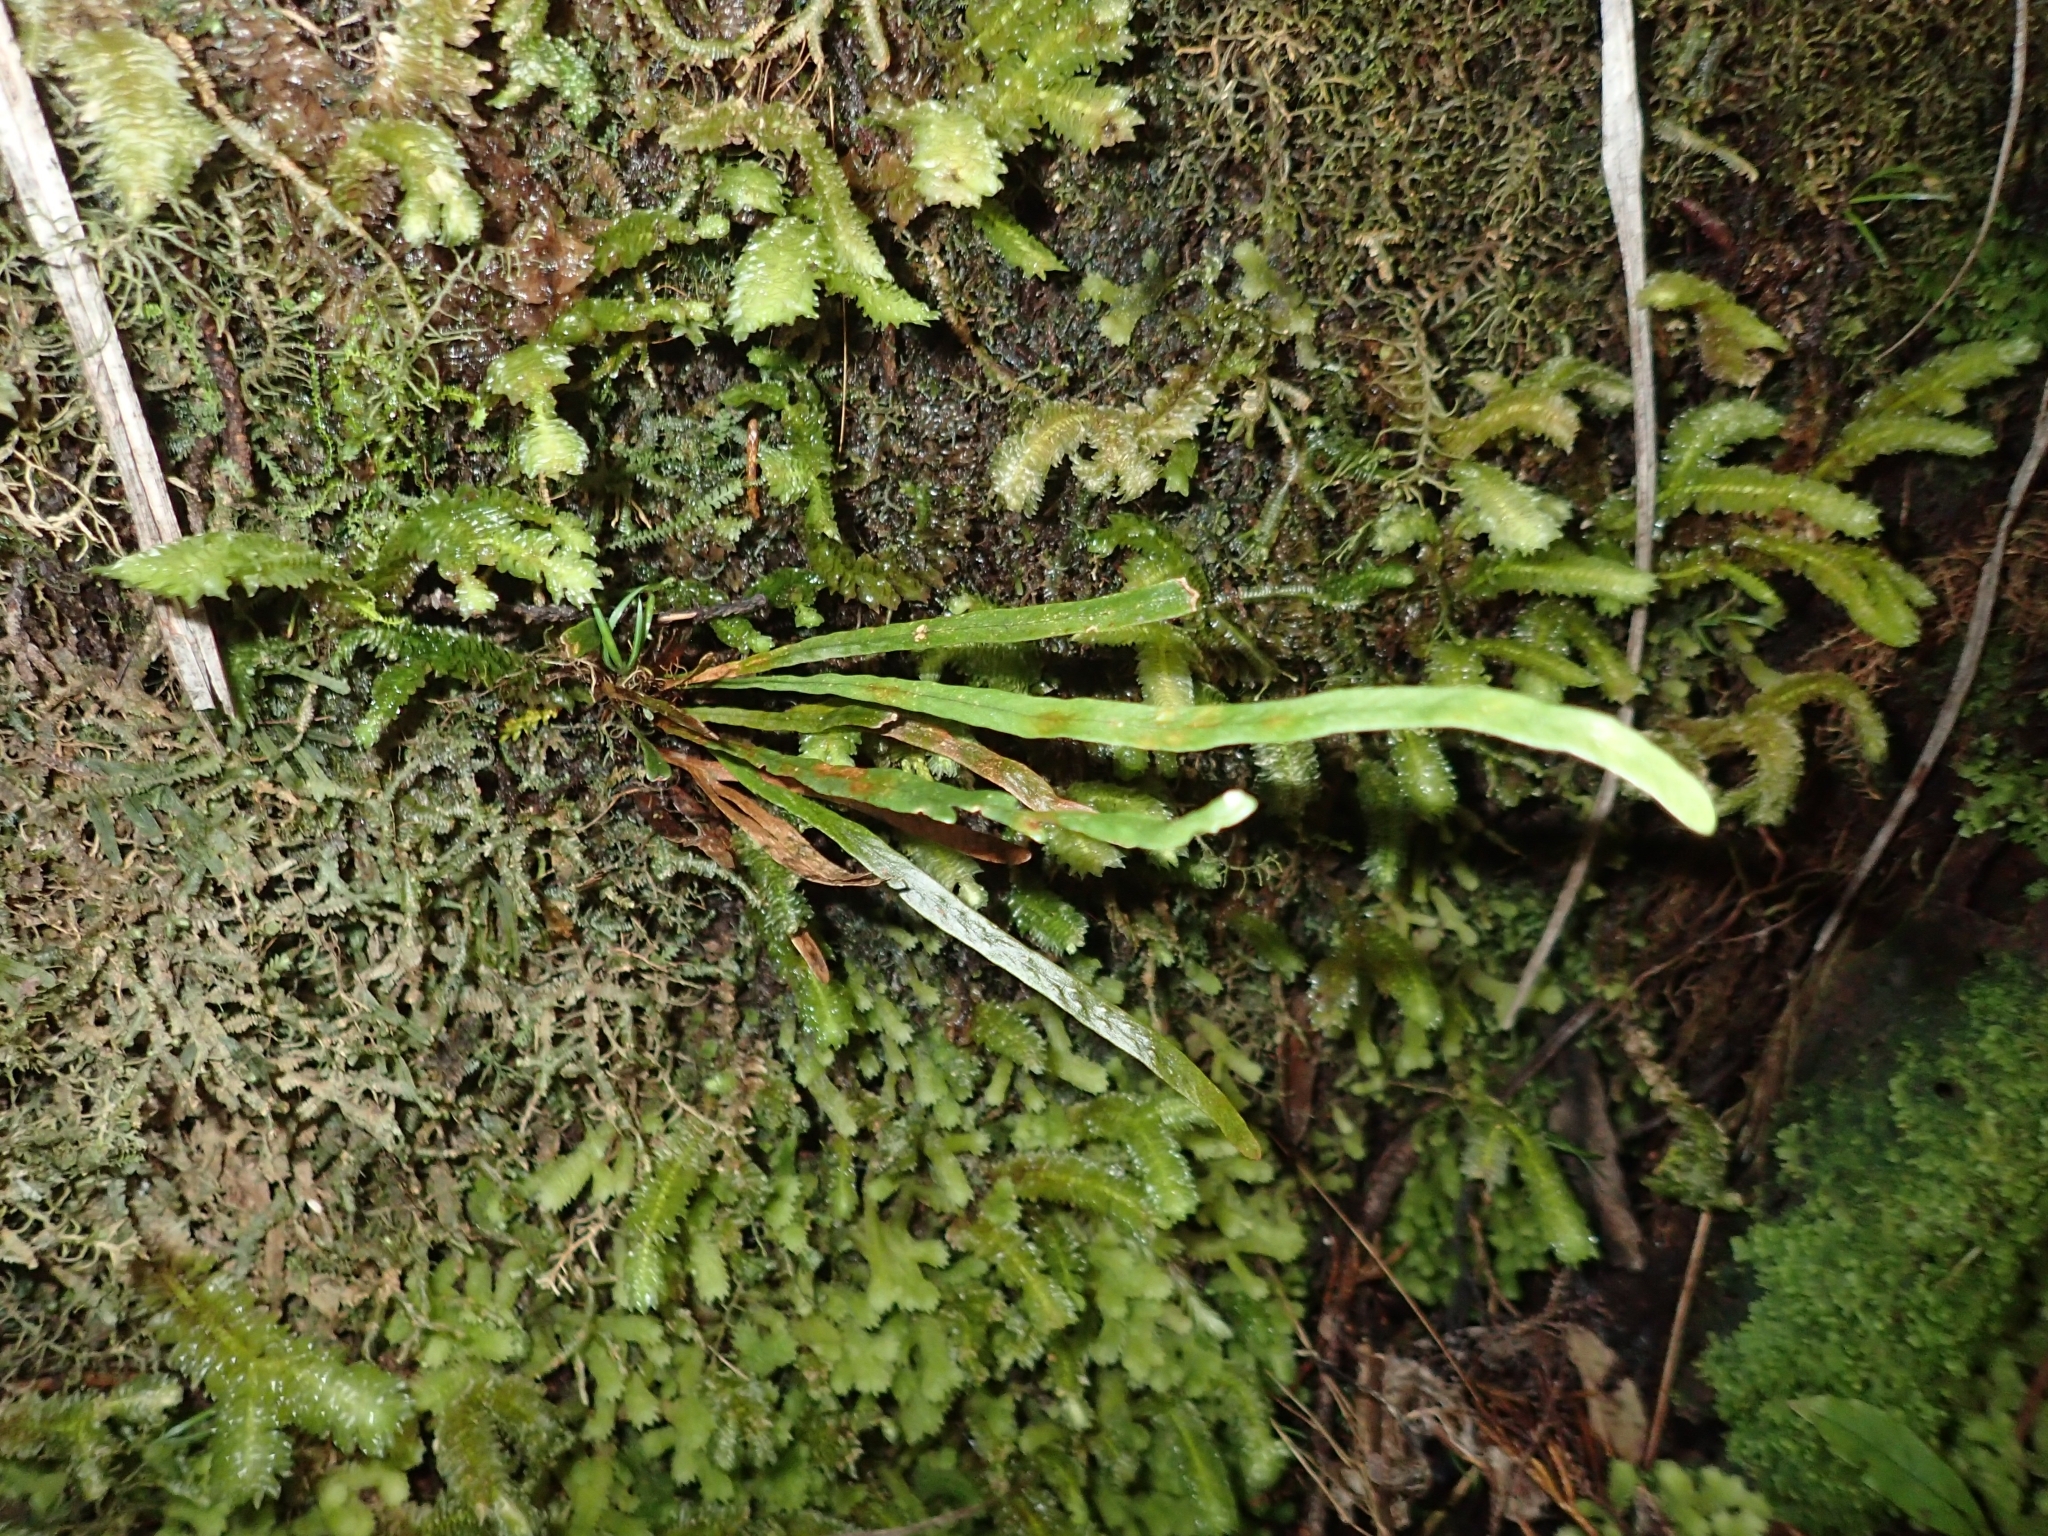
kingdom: Plantae
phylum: Tracheophyta
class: Polypodiopsida
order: Polypodiales
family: Polypodiaceae
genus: Notogrammitis
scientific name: Notogrammitis angustifolia
